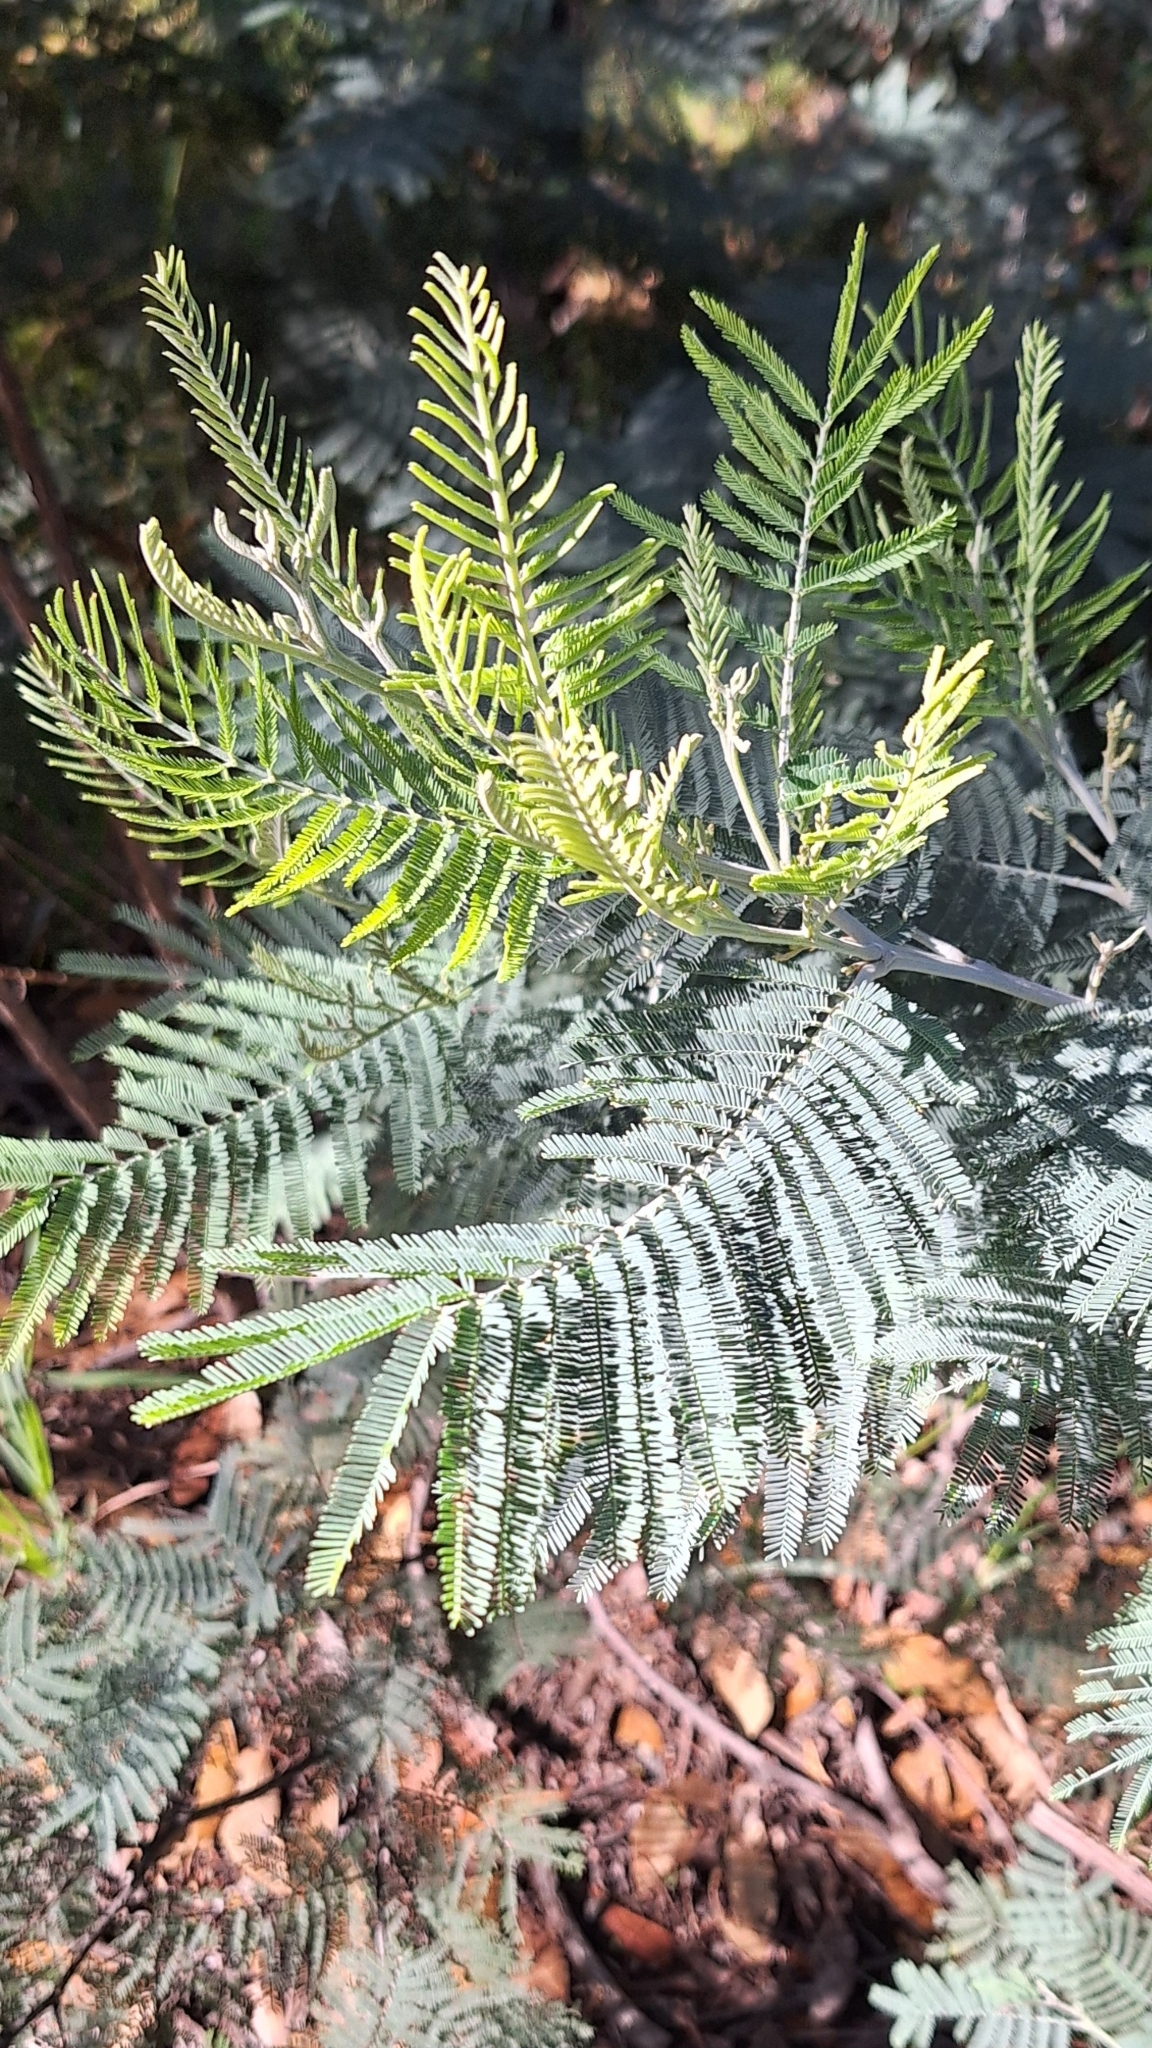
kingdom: Plantae
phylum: Tracheophyta
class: Magnoliopsida
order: Fabales
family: Fabaceae
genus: Acacia
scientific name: Acacia dealbata
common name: Silver wattle
